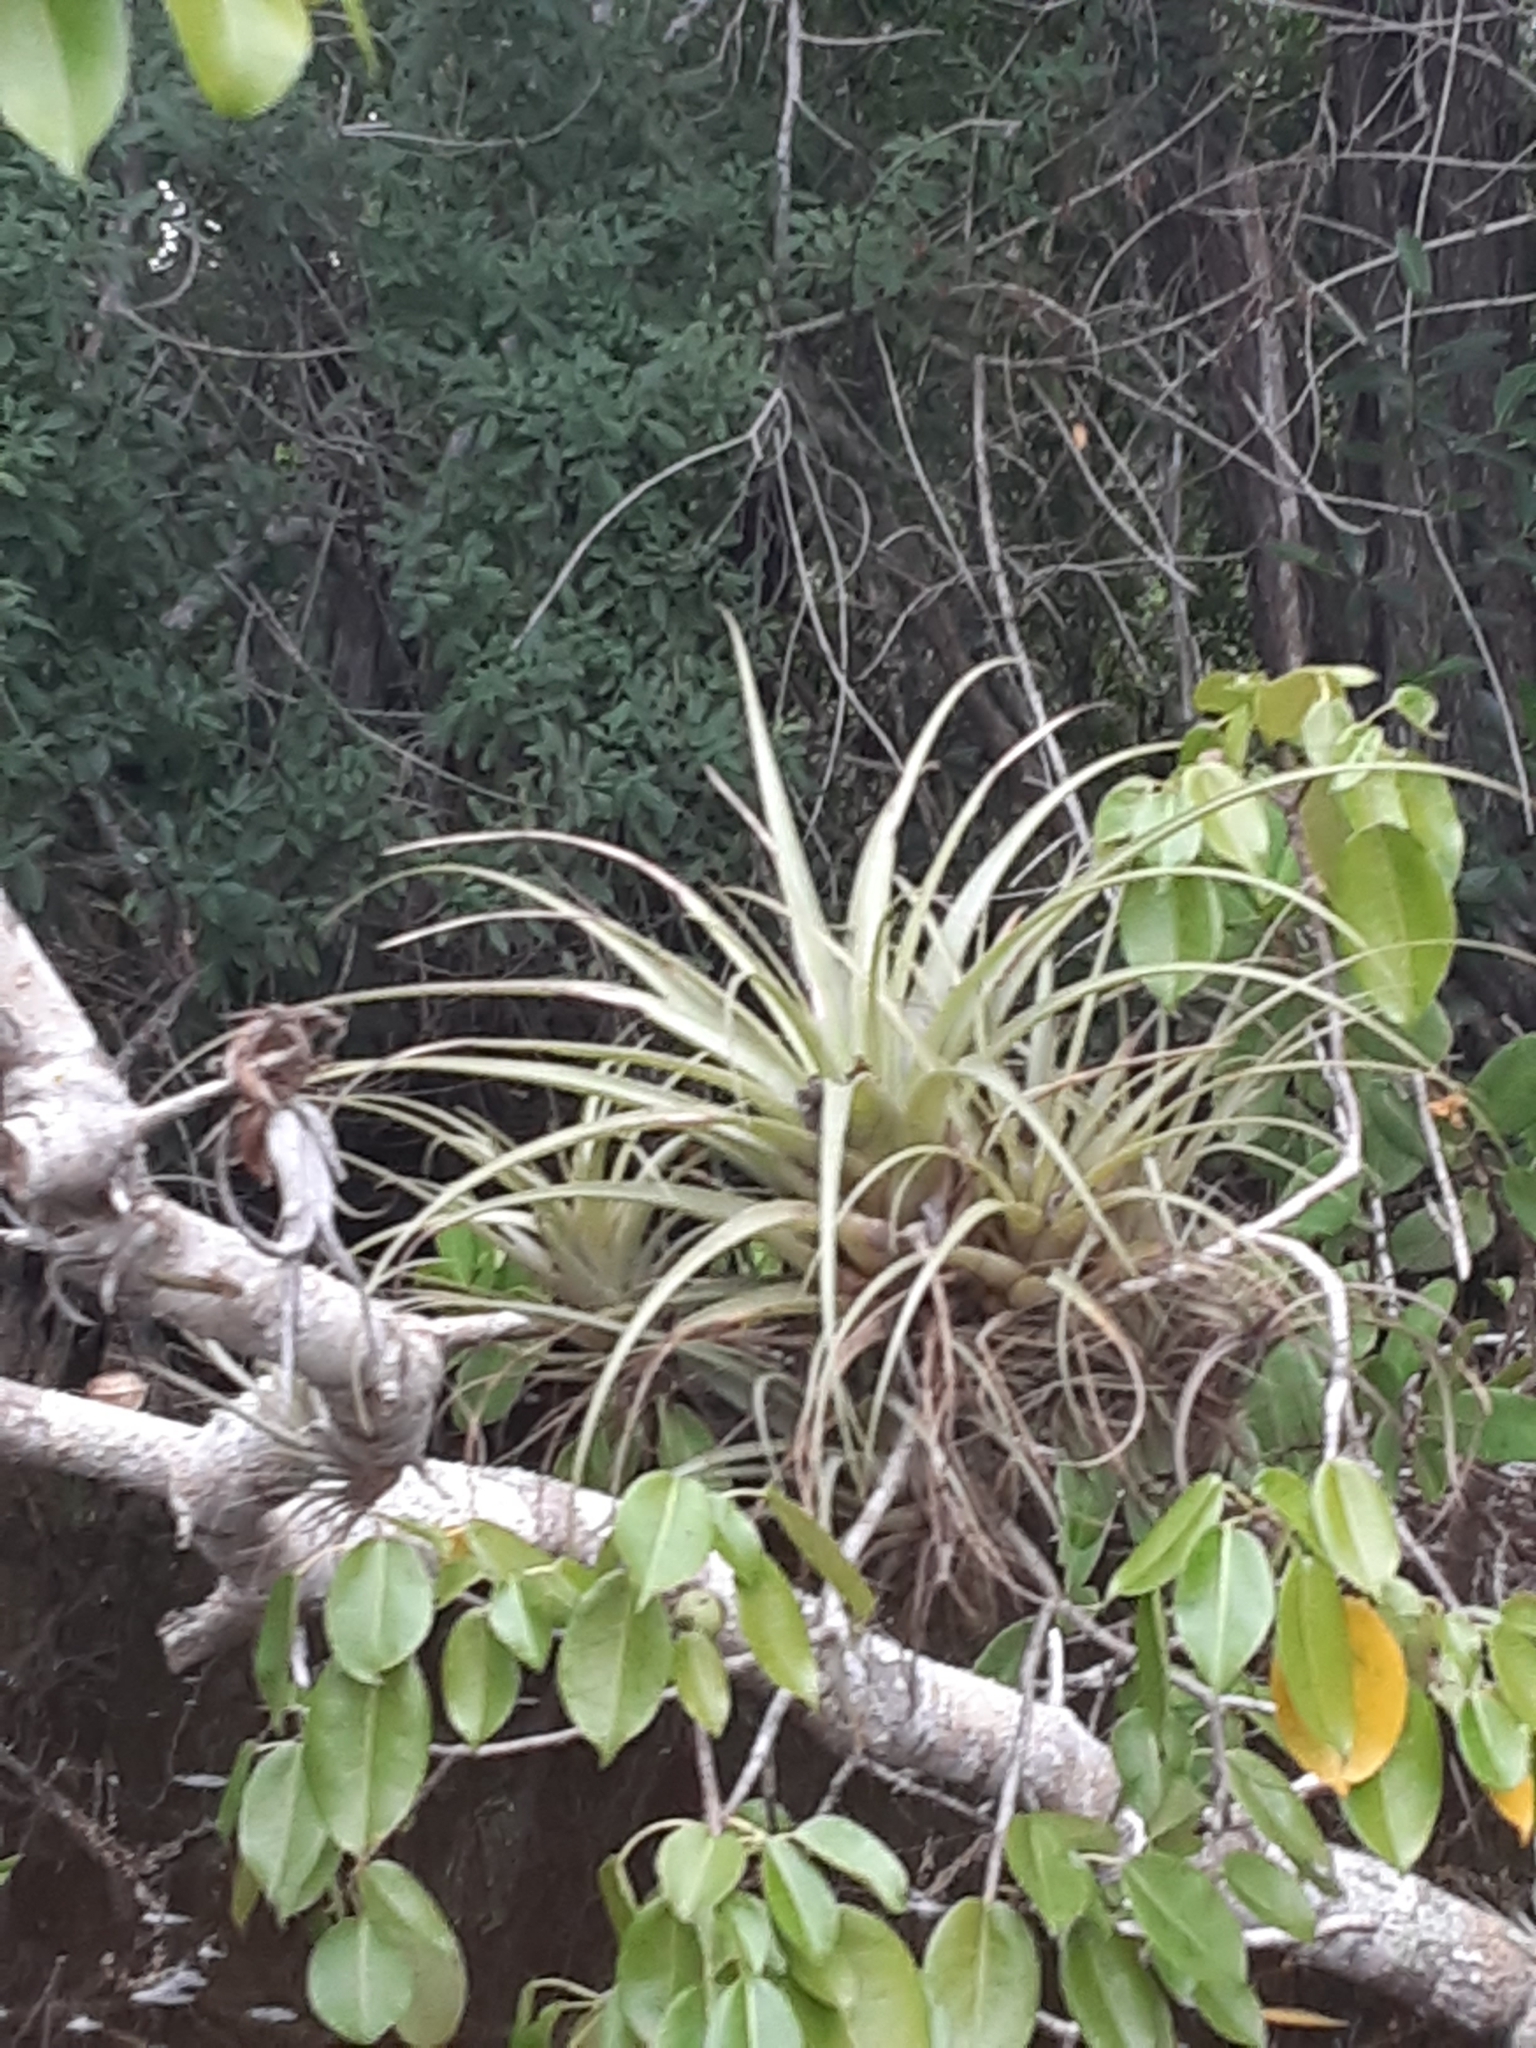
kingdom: Plantae
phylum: Tracheophyta
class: Liliopsida
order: Poales
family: Bromeliaceae
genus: Tillandsia
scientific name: Tillandsia utriculata
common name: Wild pine
